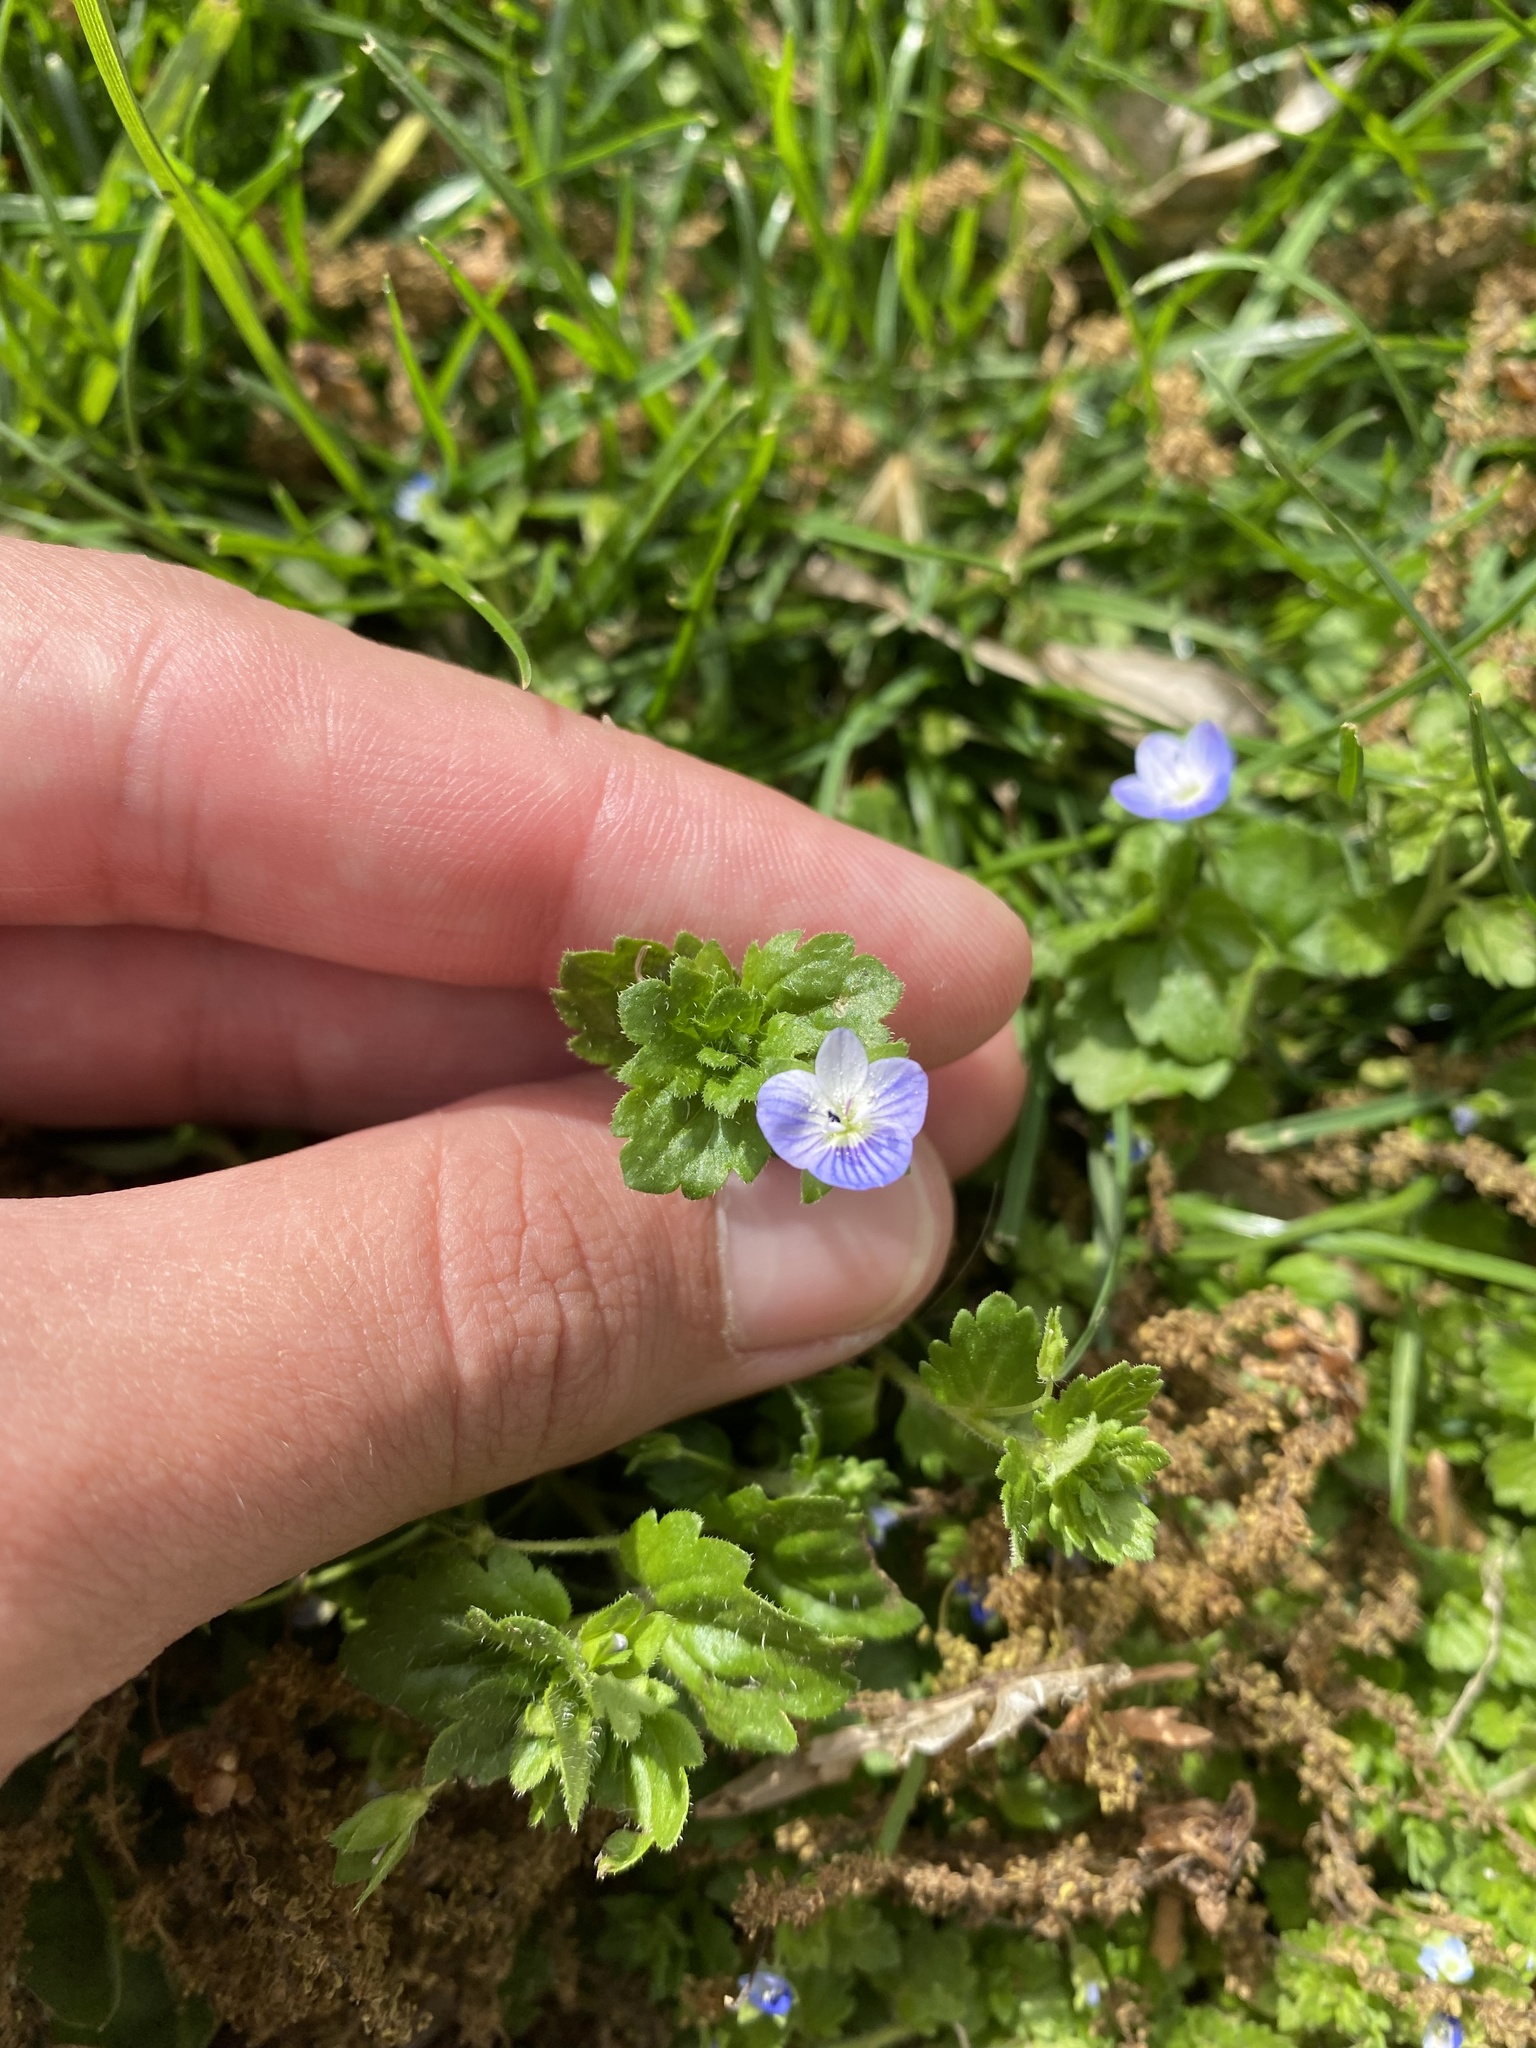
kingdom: Plantae
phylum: Tracheophyta
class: Magnoliopsida
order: Lamiales
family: Plantaginaceae
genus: Veronica
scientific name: Veronica persica
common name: Common field-speedwell
